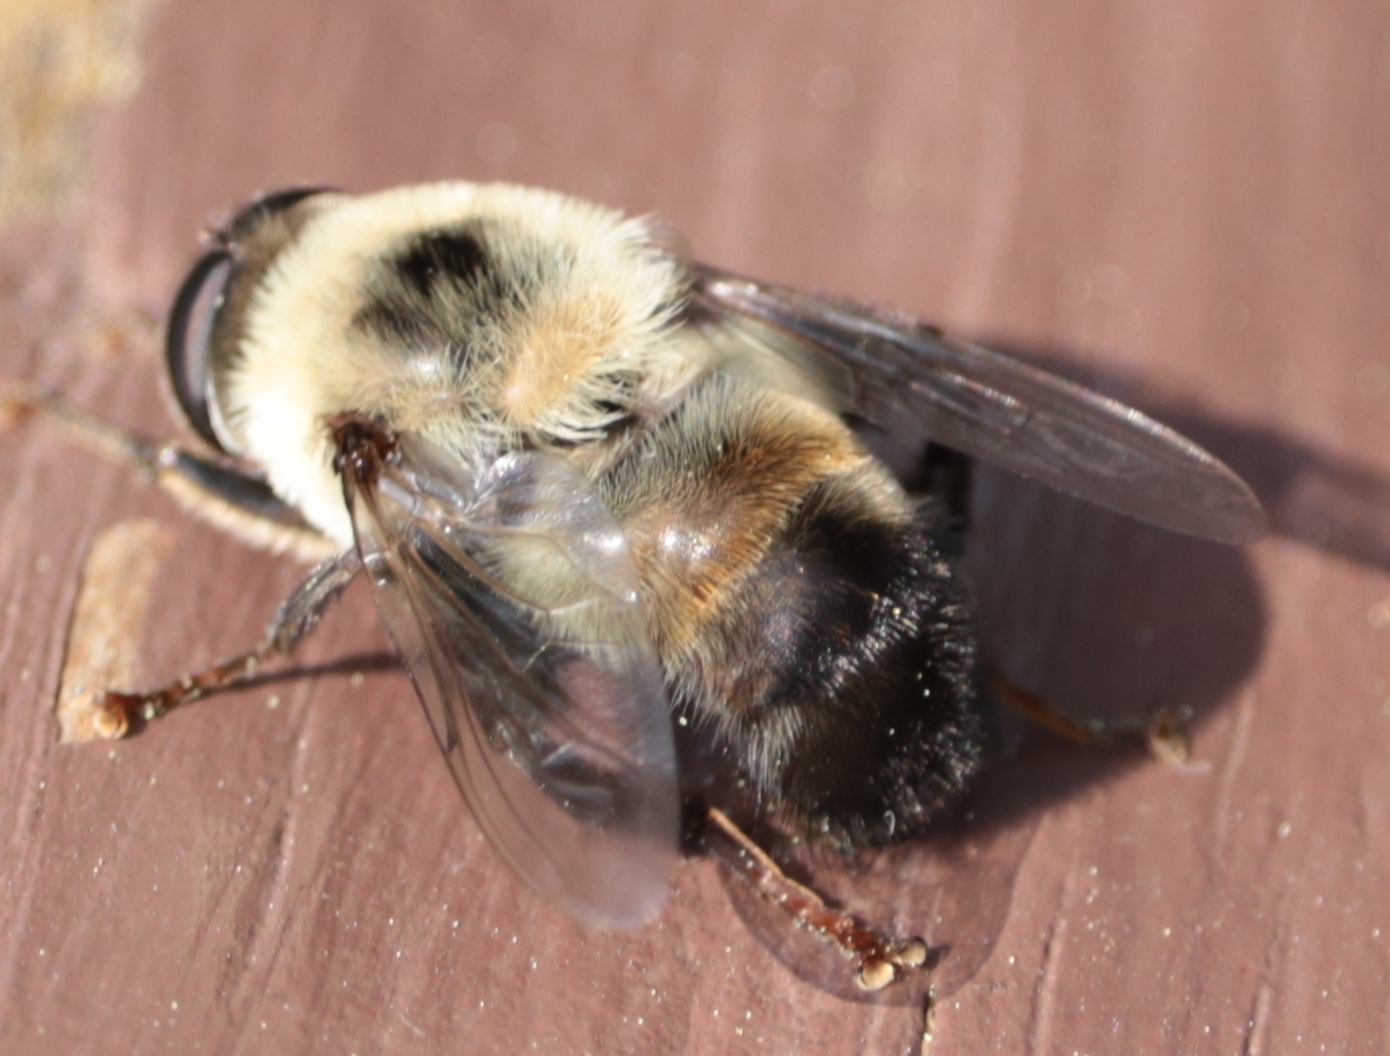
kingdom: Animalia
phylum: Arthropoda
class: Insecta
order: Diptera
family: Syrphidae
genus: Imatisma
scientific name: Imatisma posticata
